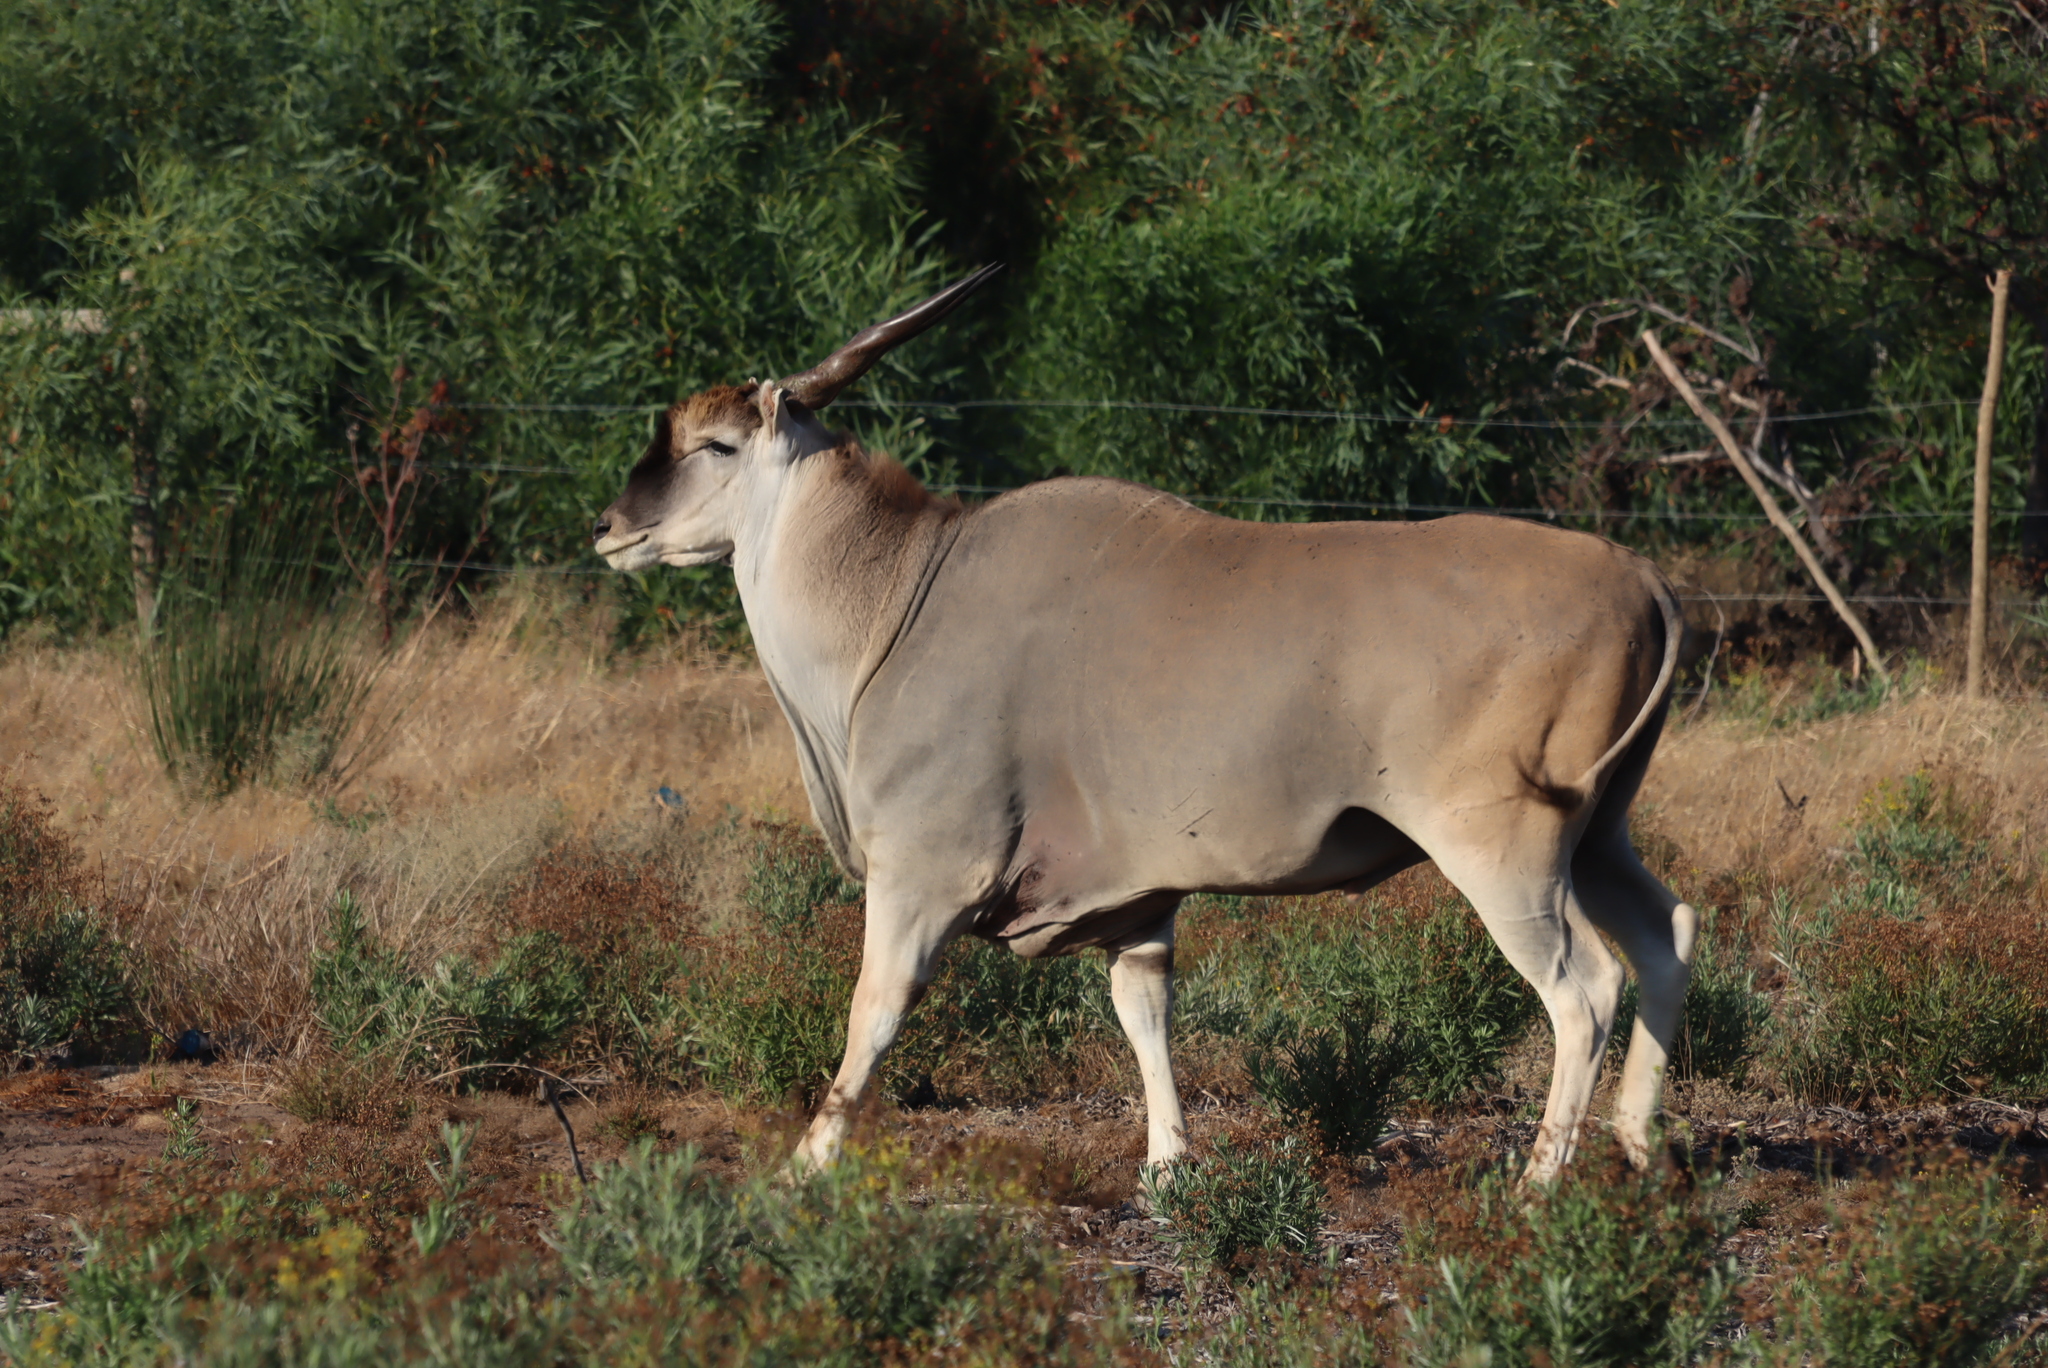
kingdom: Animalia
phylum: Chordata
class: Mammalia
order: Artiodactyla
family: Bovidae
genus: Taurotragus
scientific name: Taurotragus oryx
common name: Common eland
